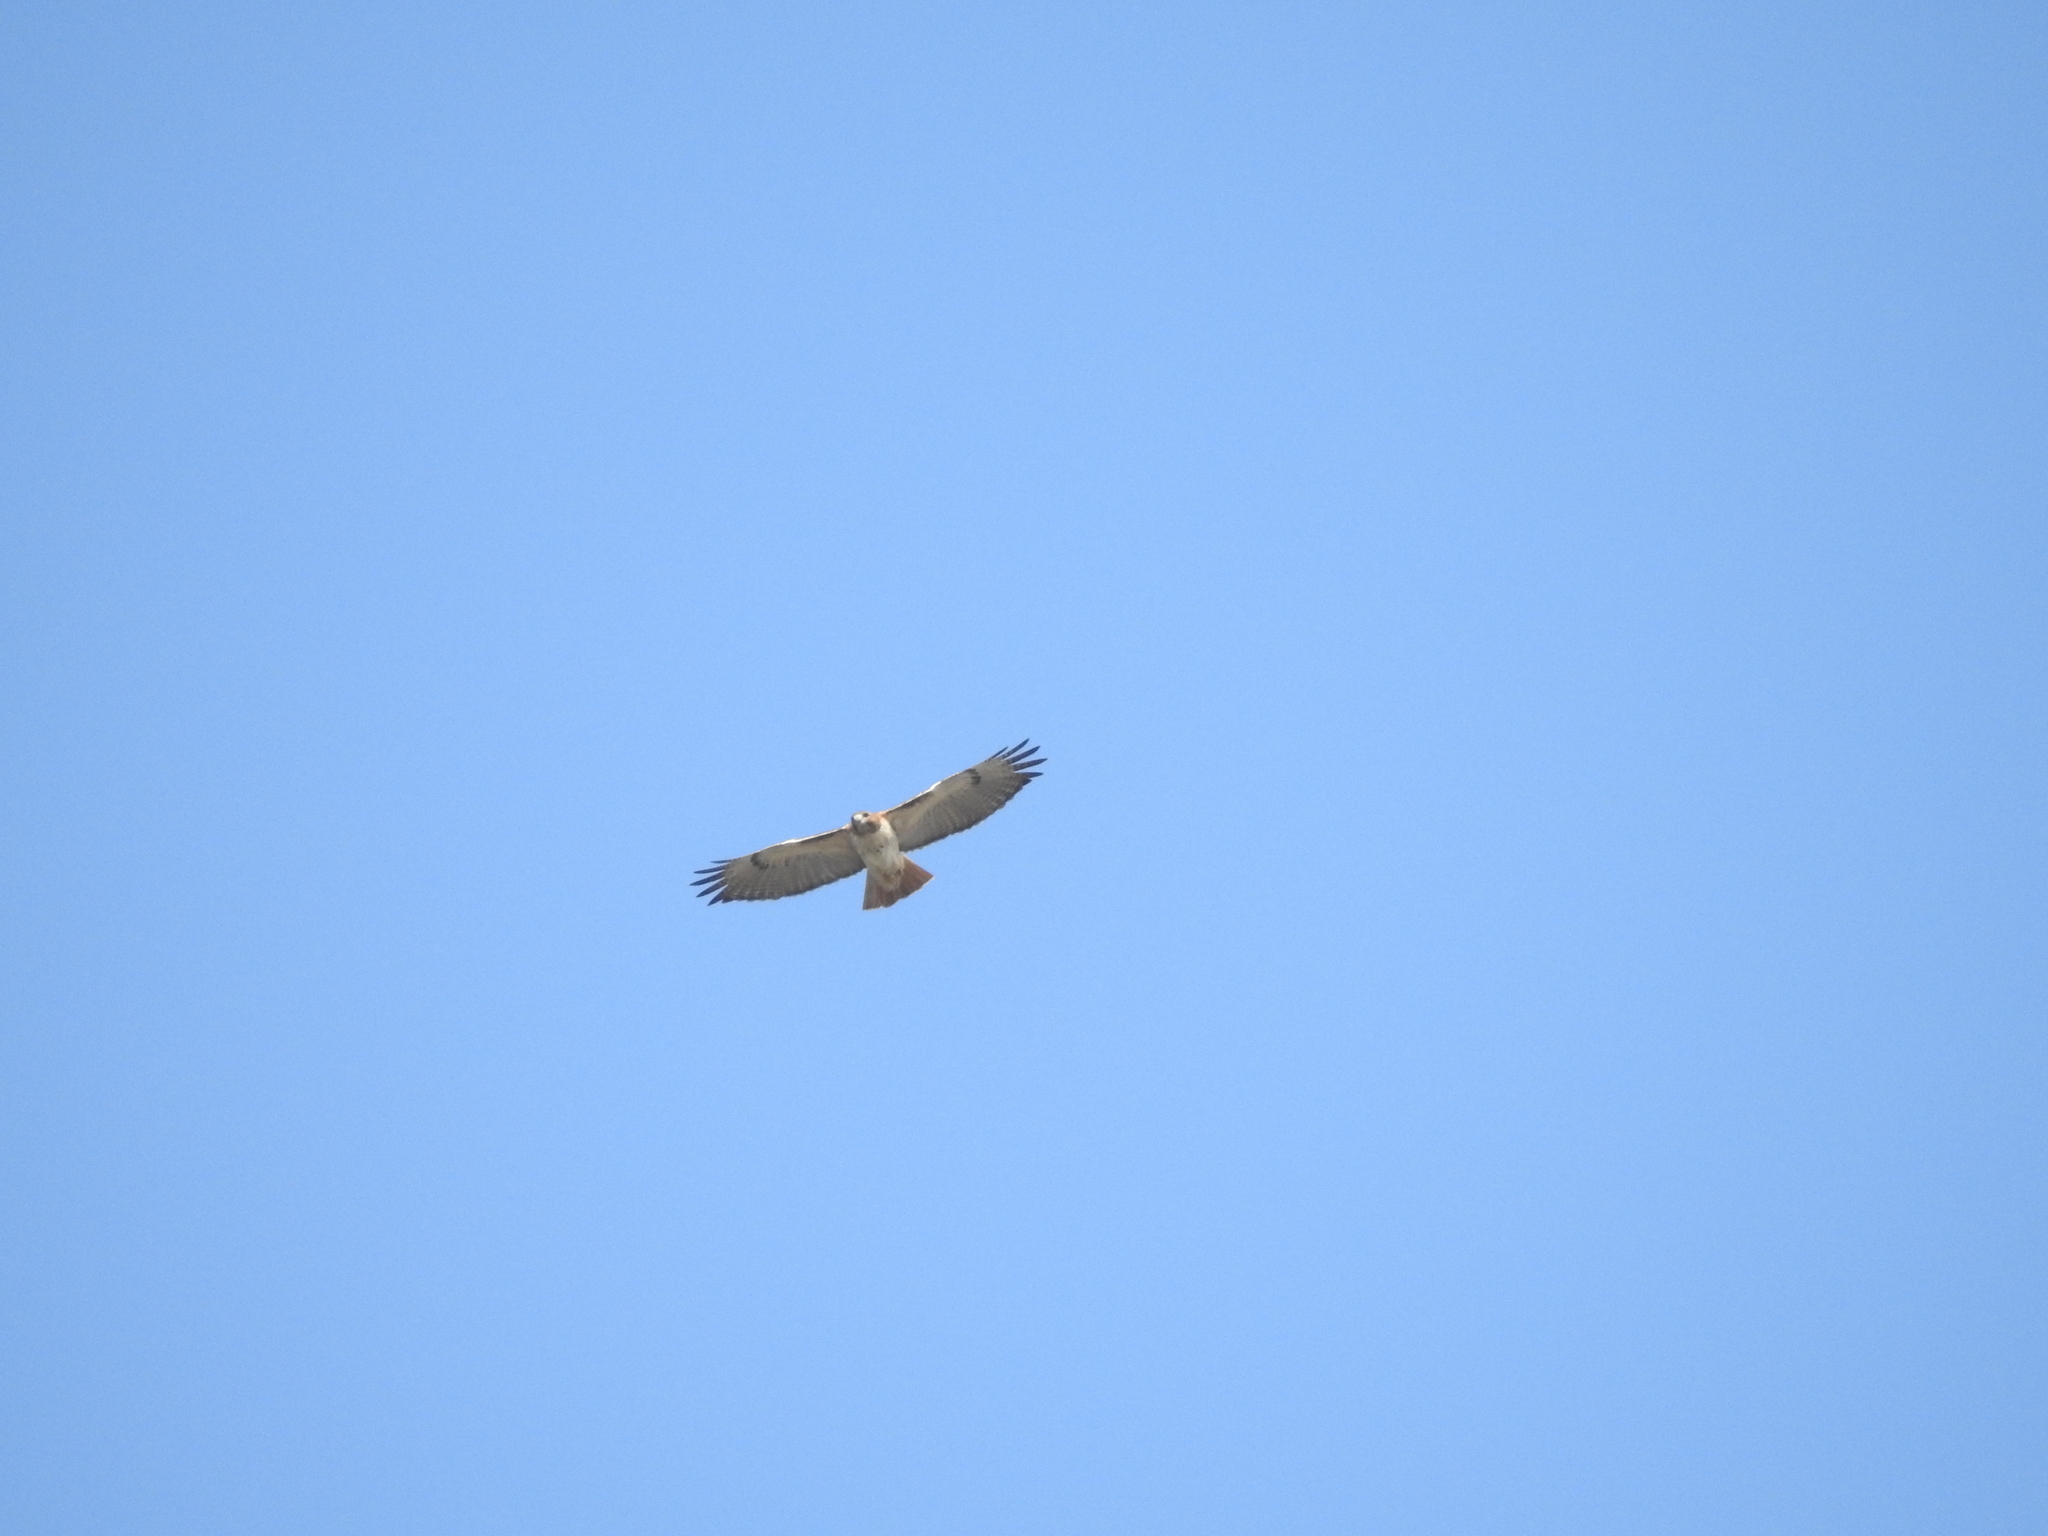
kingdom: Animalia
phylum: Chordata
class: Aves
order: Accipitriformes
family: Accipitridae
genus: Buteo
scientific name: Buteo jamaicensis
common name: Red-tailed hawk
